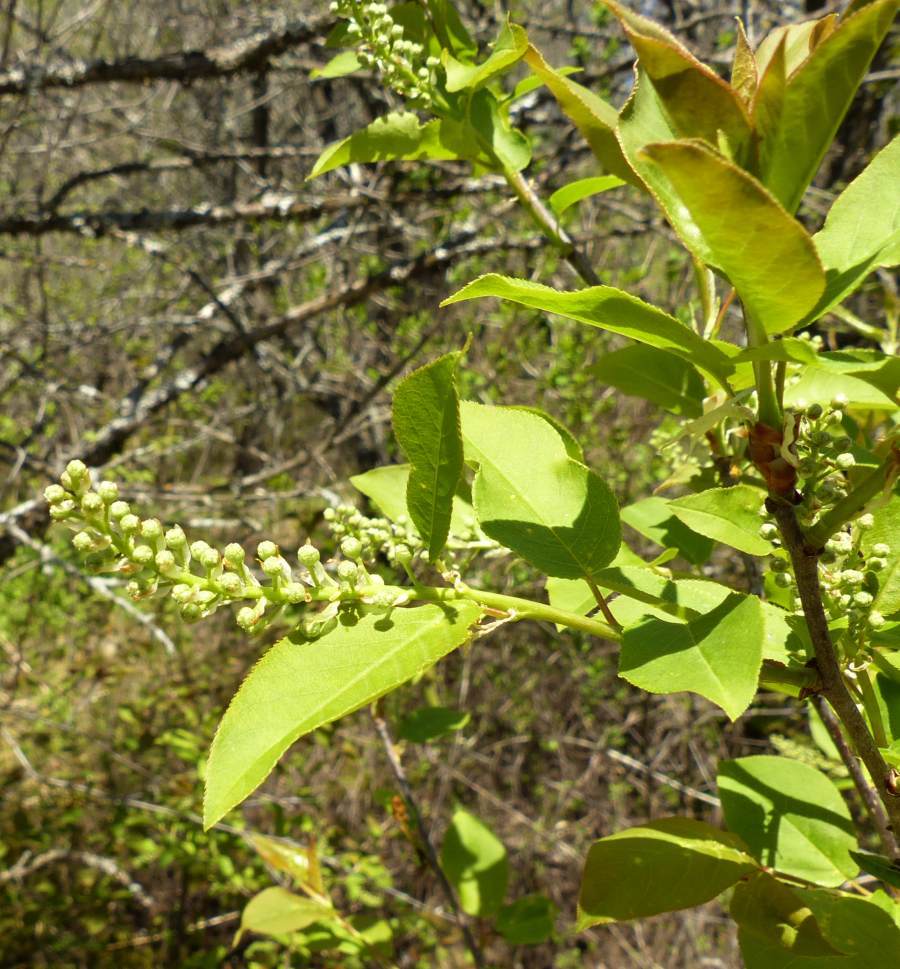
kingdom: Plantae
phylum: Tracheophyta
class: Magnoliopsida
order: Rosales
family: Rosaceae
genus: Prunus
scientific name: Prunus virginiana
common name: Chokecherry
